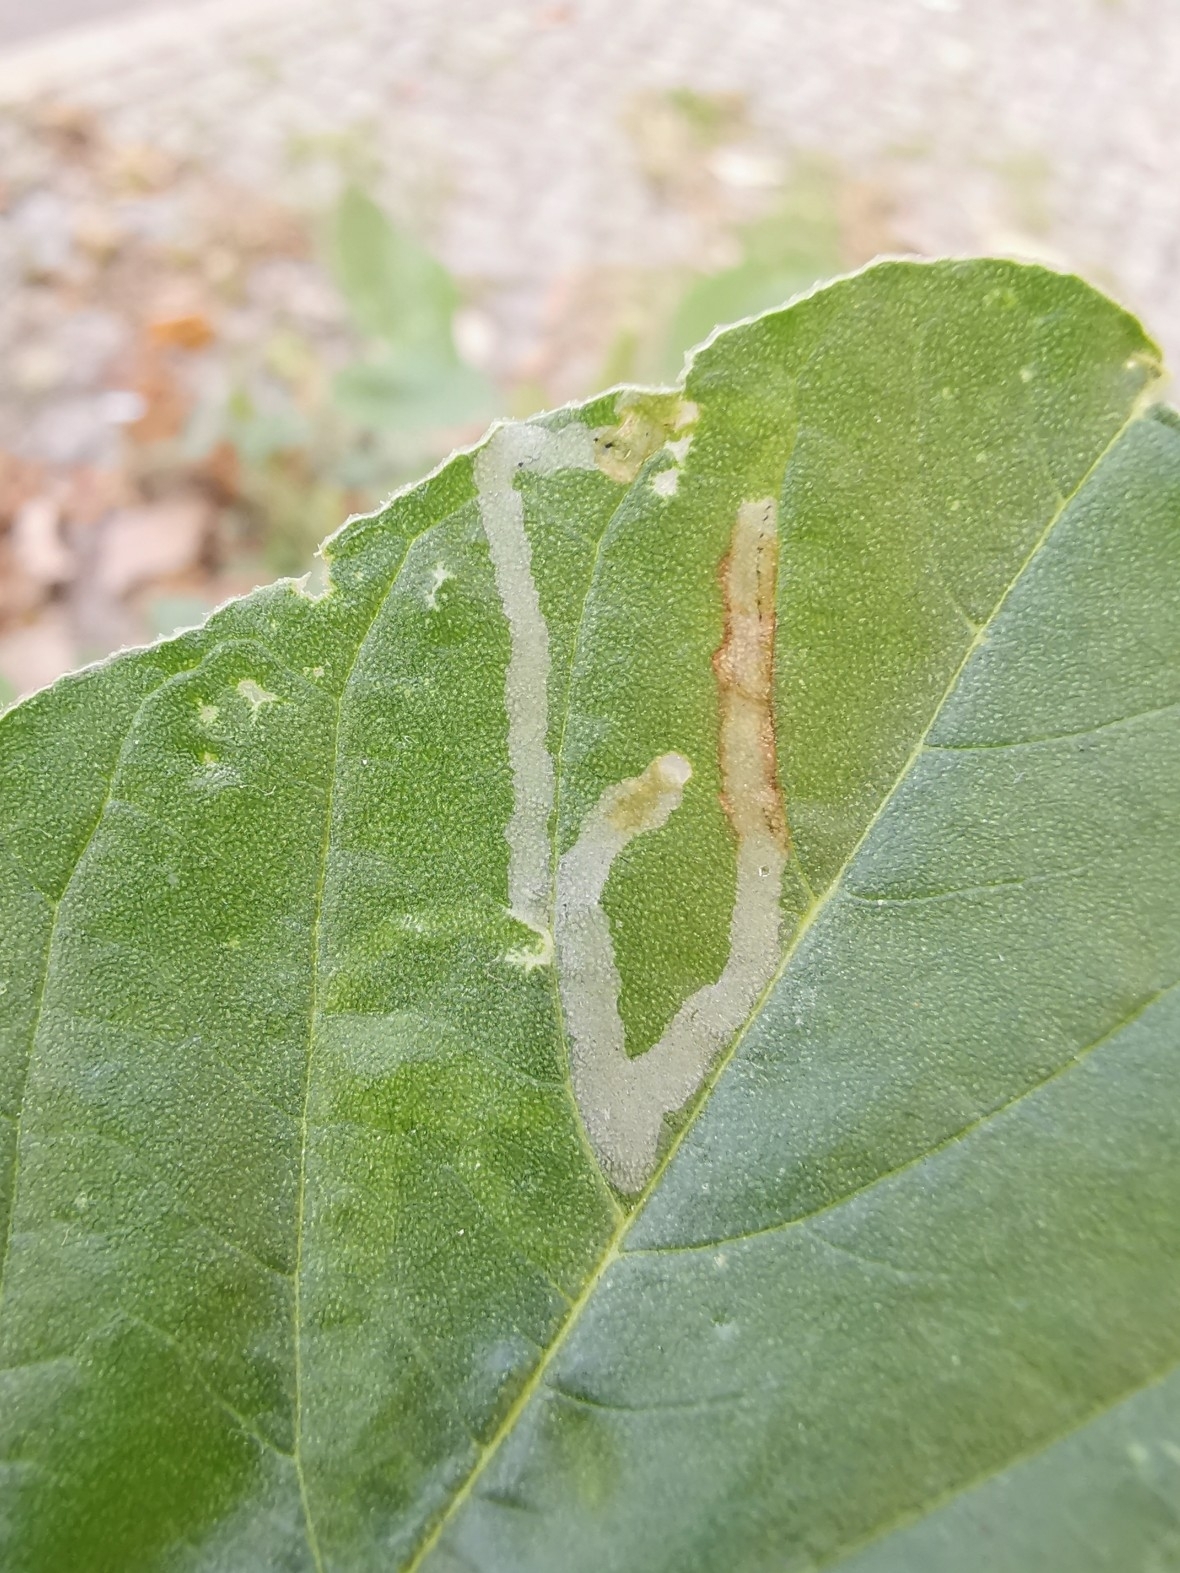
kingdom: Animalia
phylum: Arthropoda
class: Insecta
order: Diptera
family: Agromyzidae
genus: Liriomyza
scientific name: Liriomyza bryoniae
